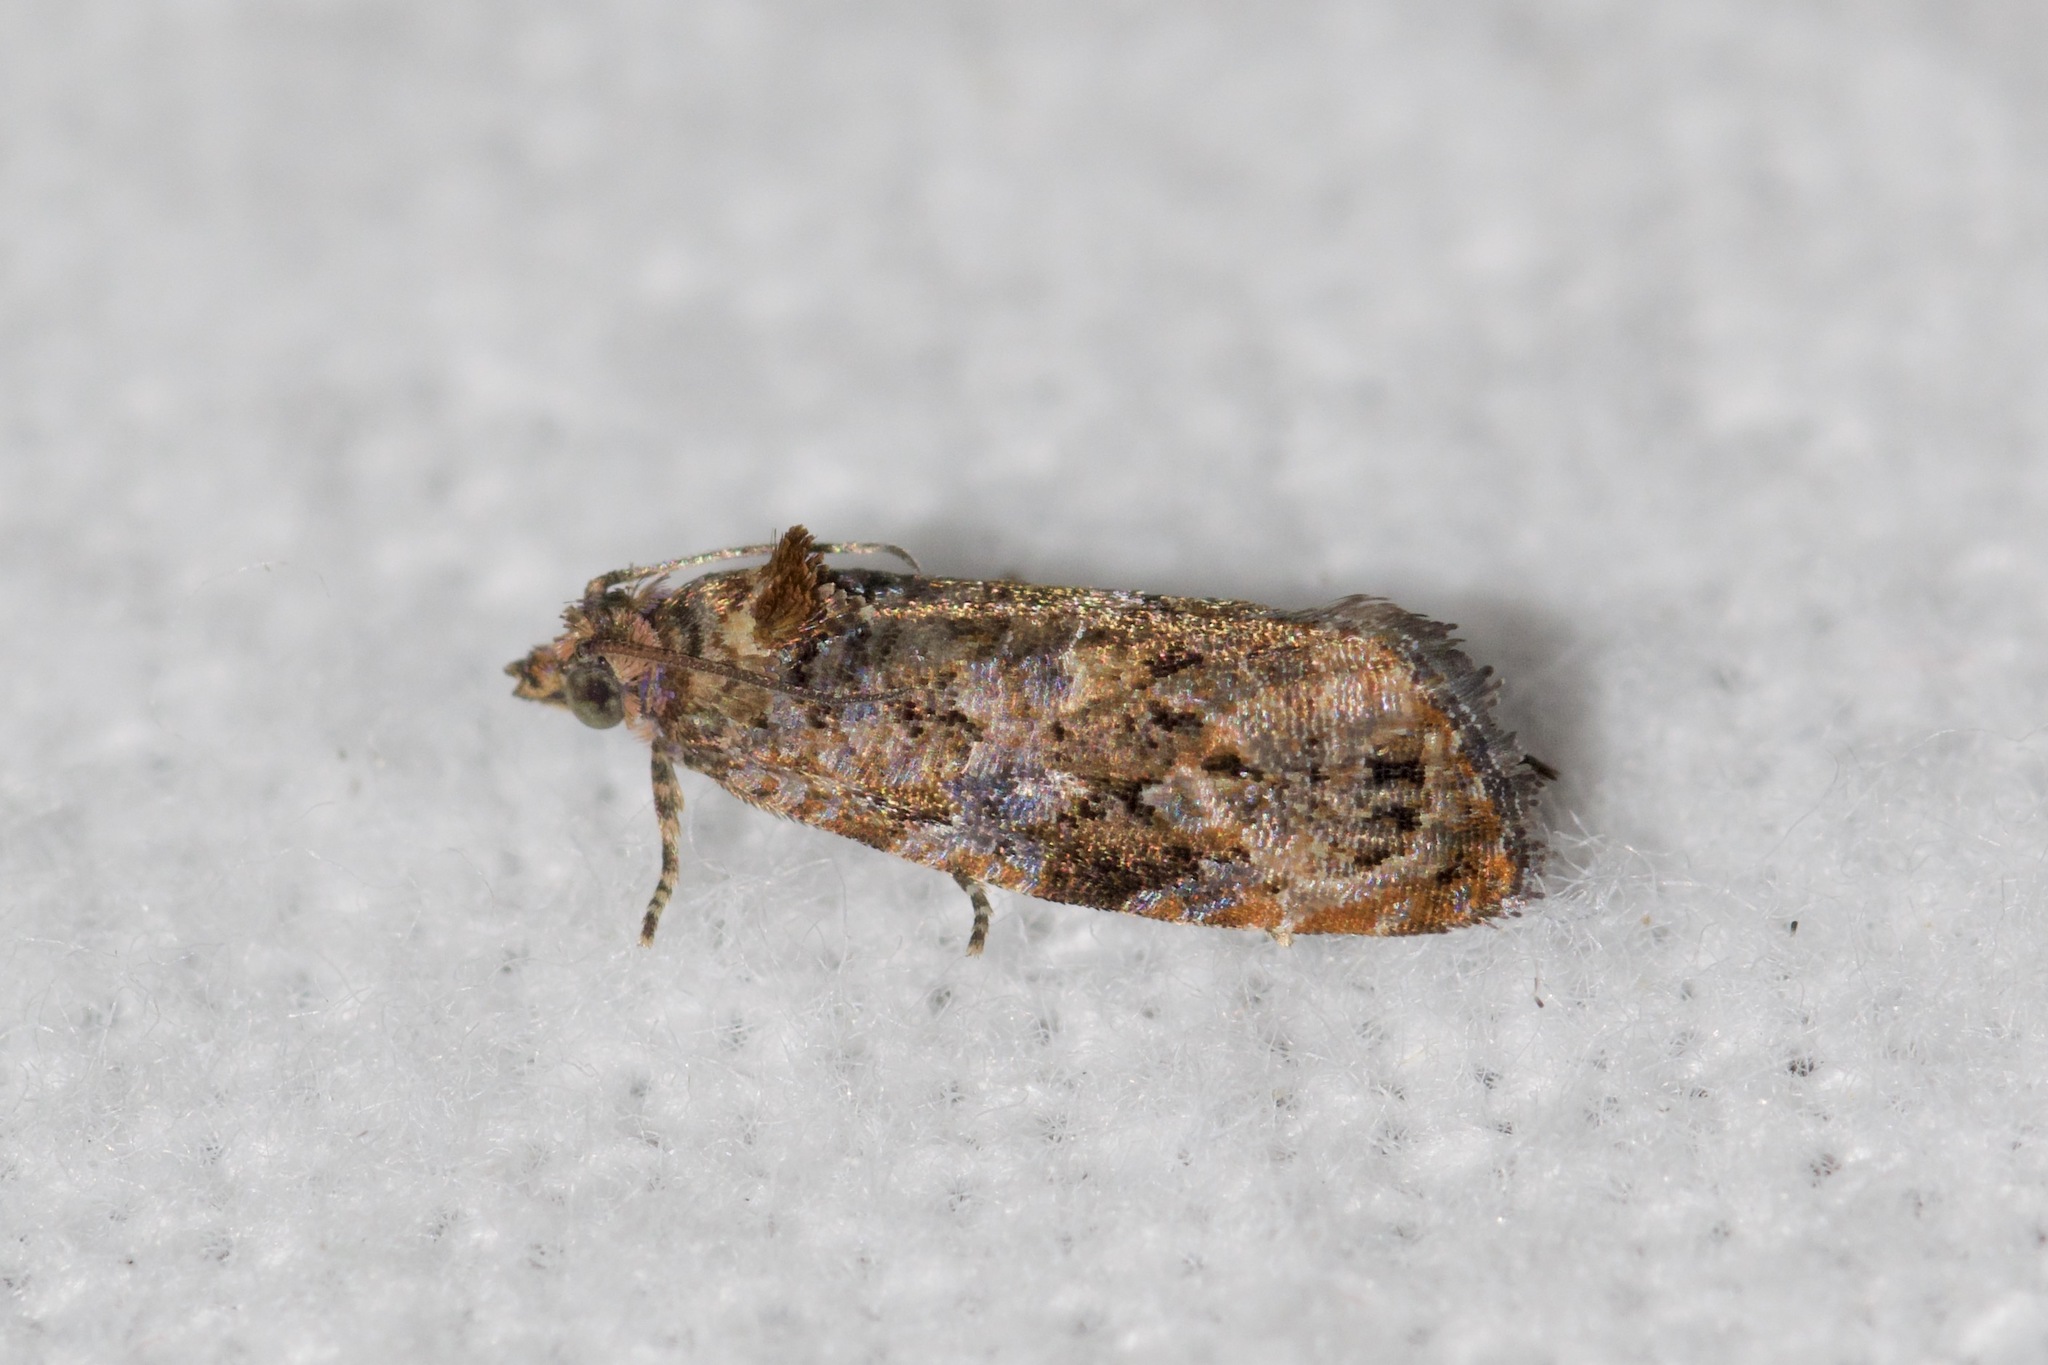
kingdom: Animalia
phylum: Arthropoda
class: Insecta
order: Lepidoptera
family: Tortricidae
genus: Endothenia
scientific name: Endothenia hebesana
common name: Verbena bud moth
